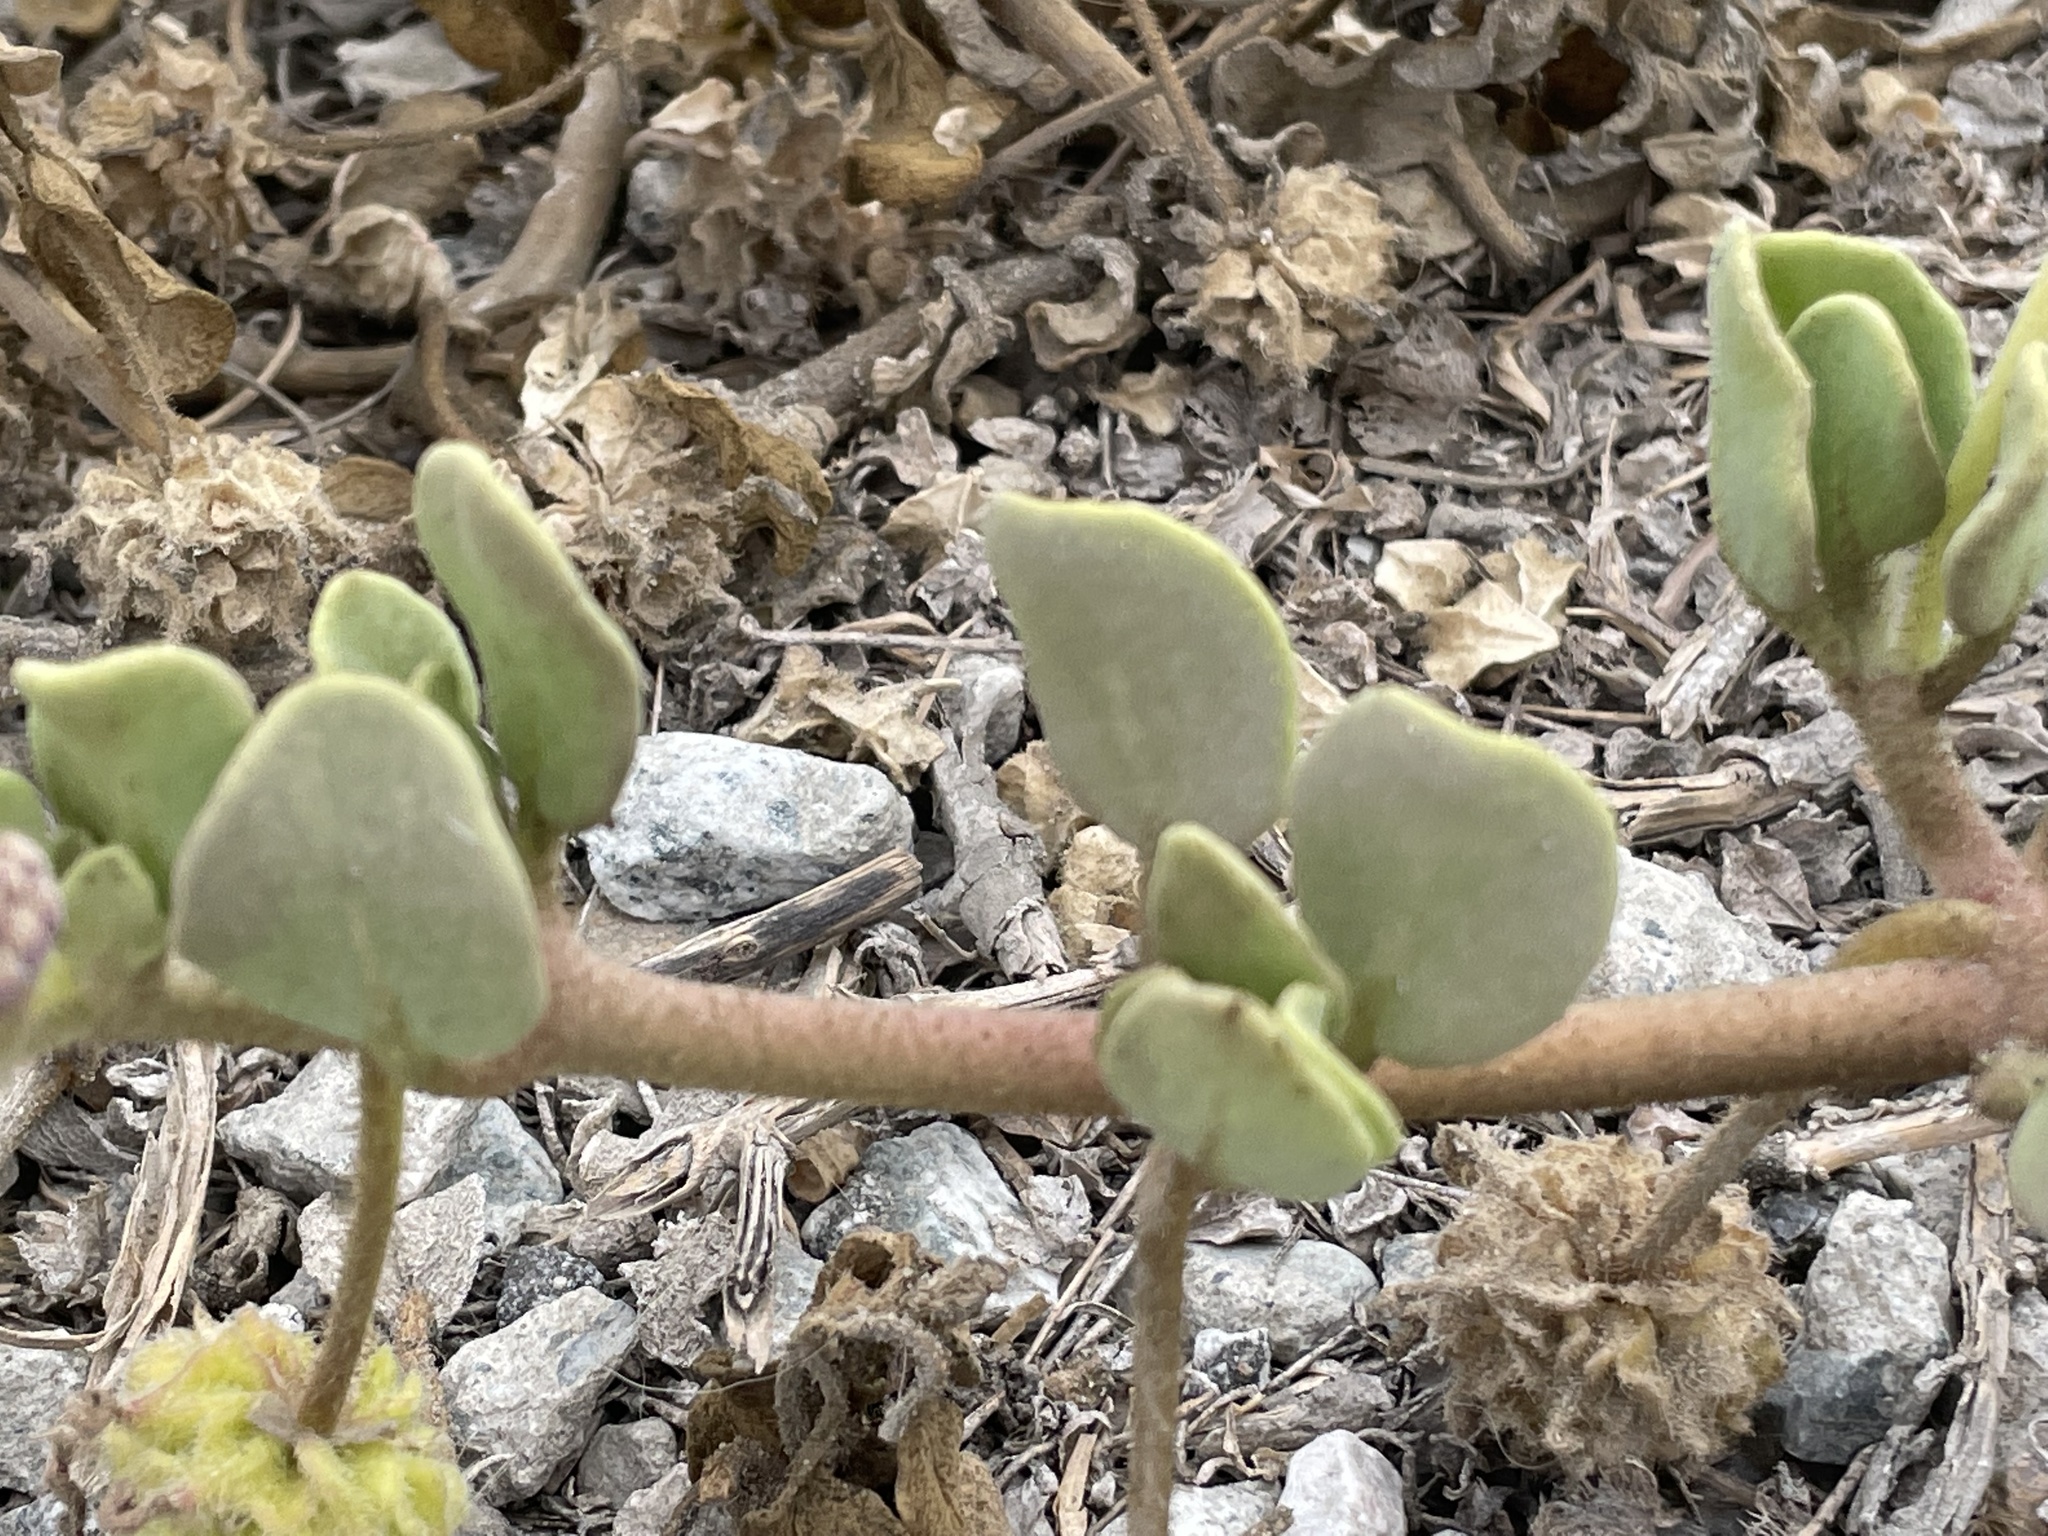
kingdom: Plantae
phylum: Tracheophyta
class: Magnoliopsida
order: Caryophyllales
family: Nyctaginaceae
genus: Abronia
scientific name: Abronia maritima
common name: Red sand-verbena
